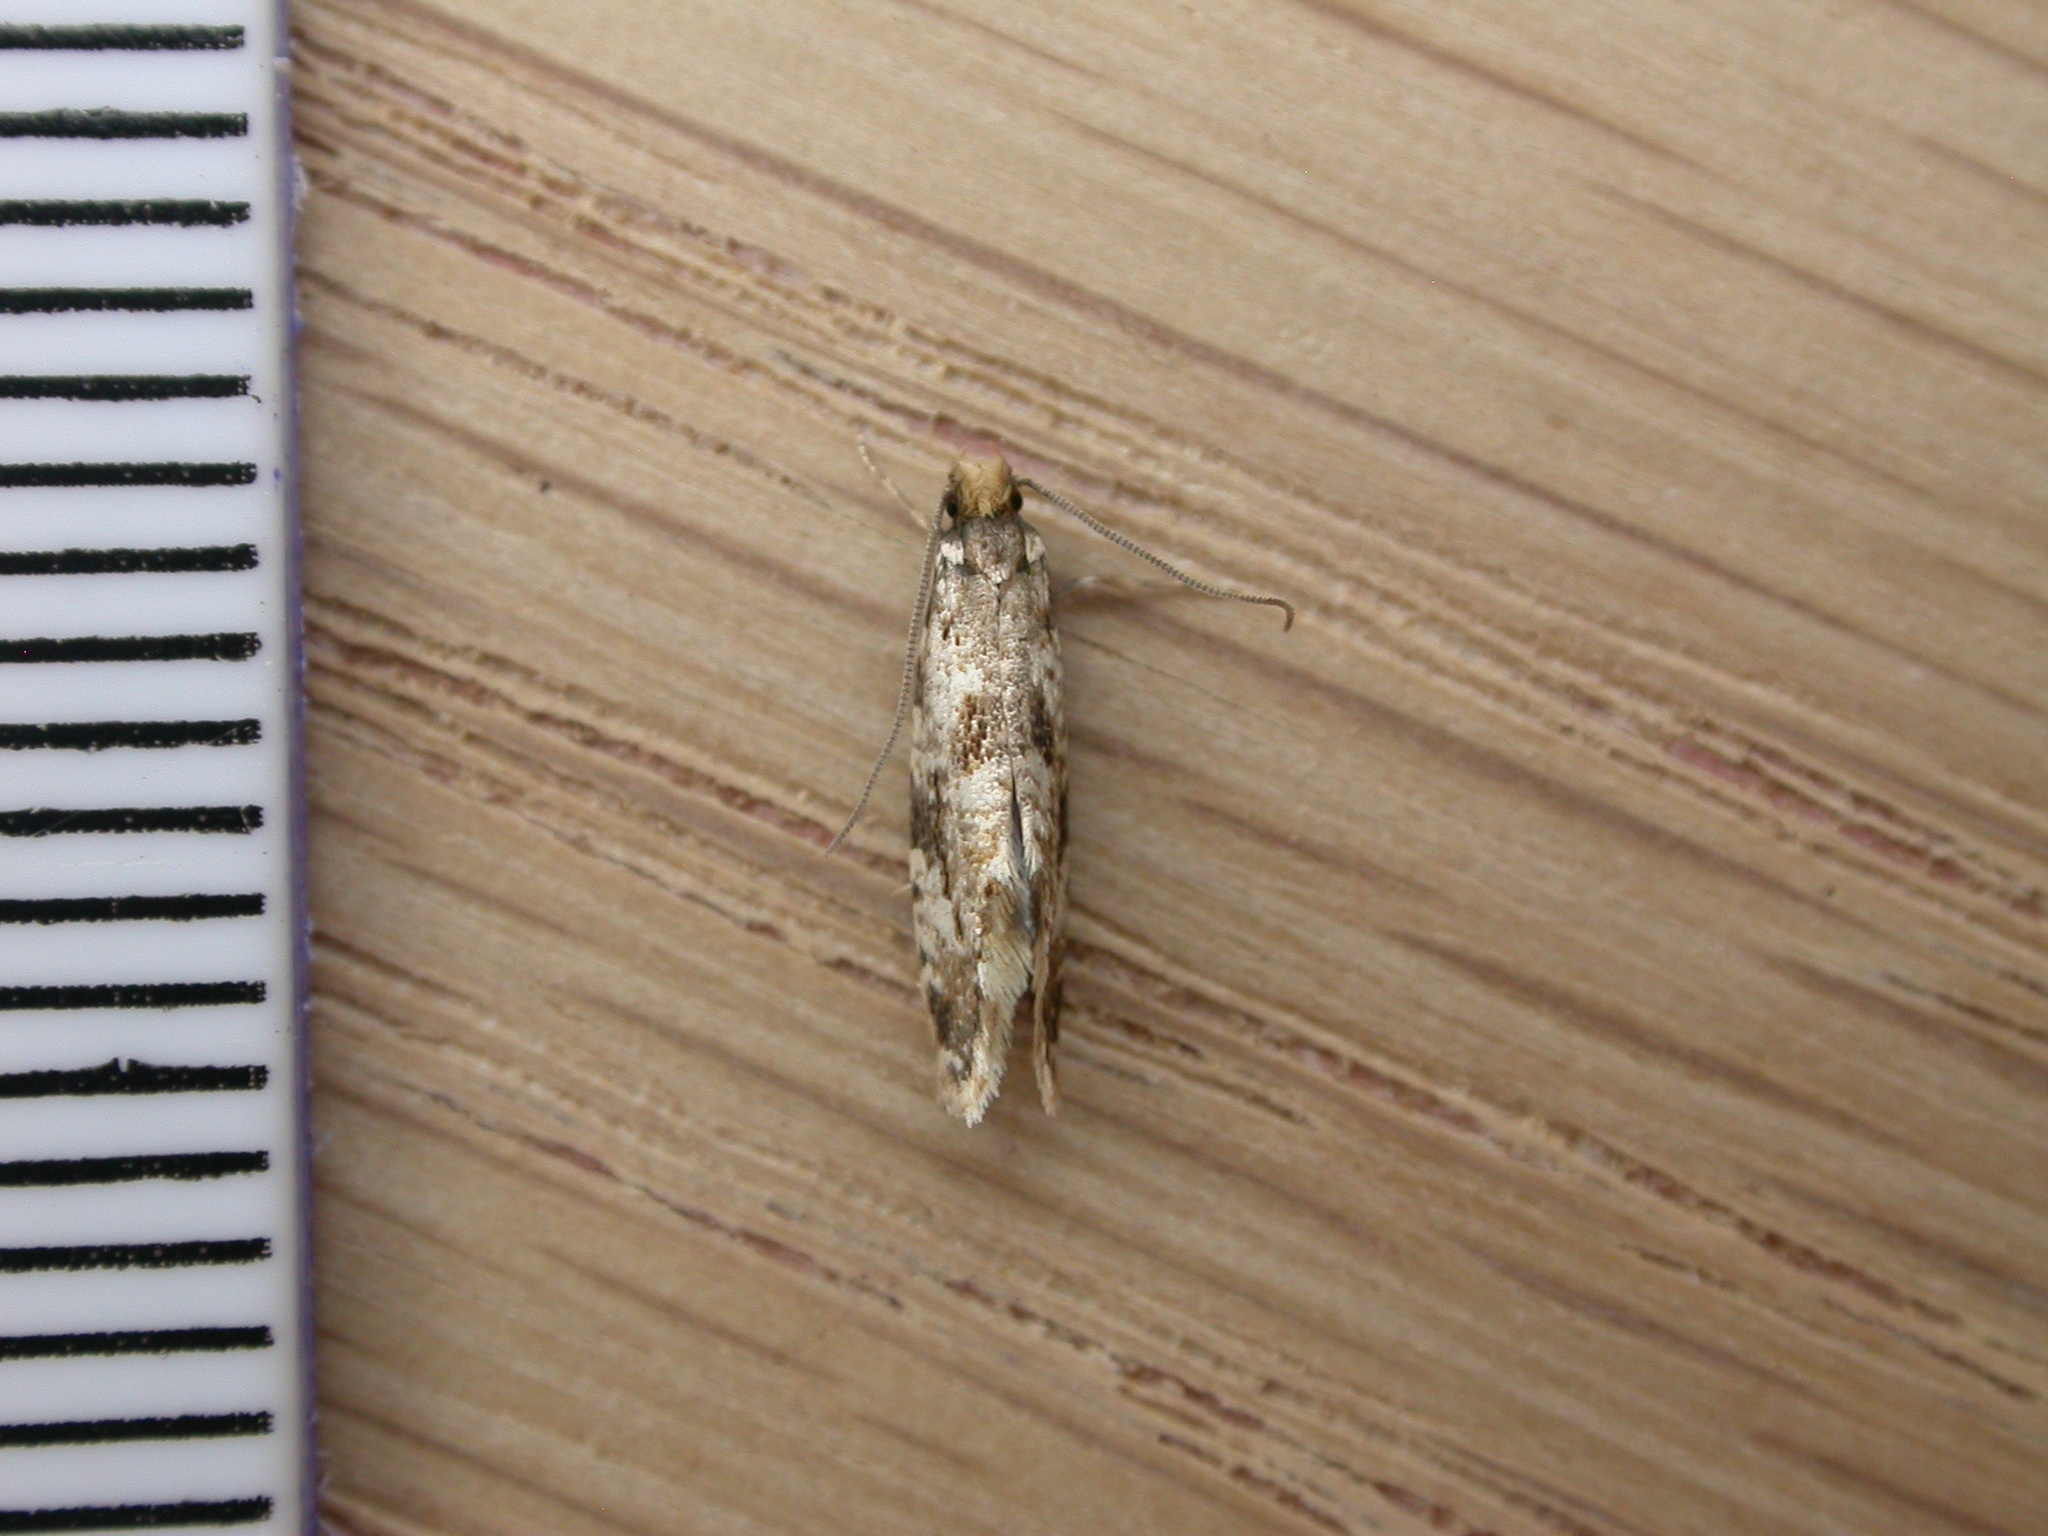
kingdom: Animalia
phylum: Arthropoda
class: Insecta
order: Lepidoptera
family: Tineidae
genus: Nemapogon
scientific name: Nemapogon cloacella
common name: Cork moth
